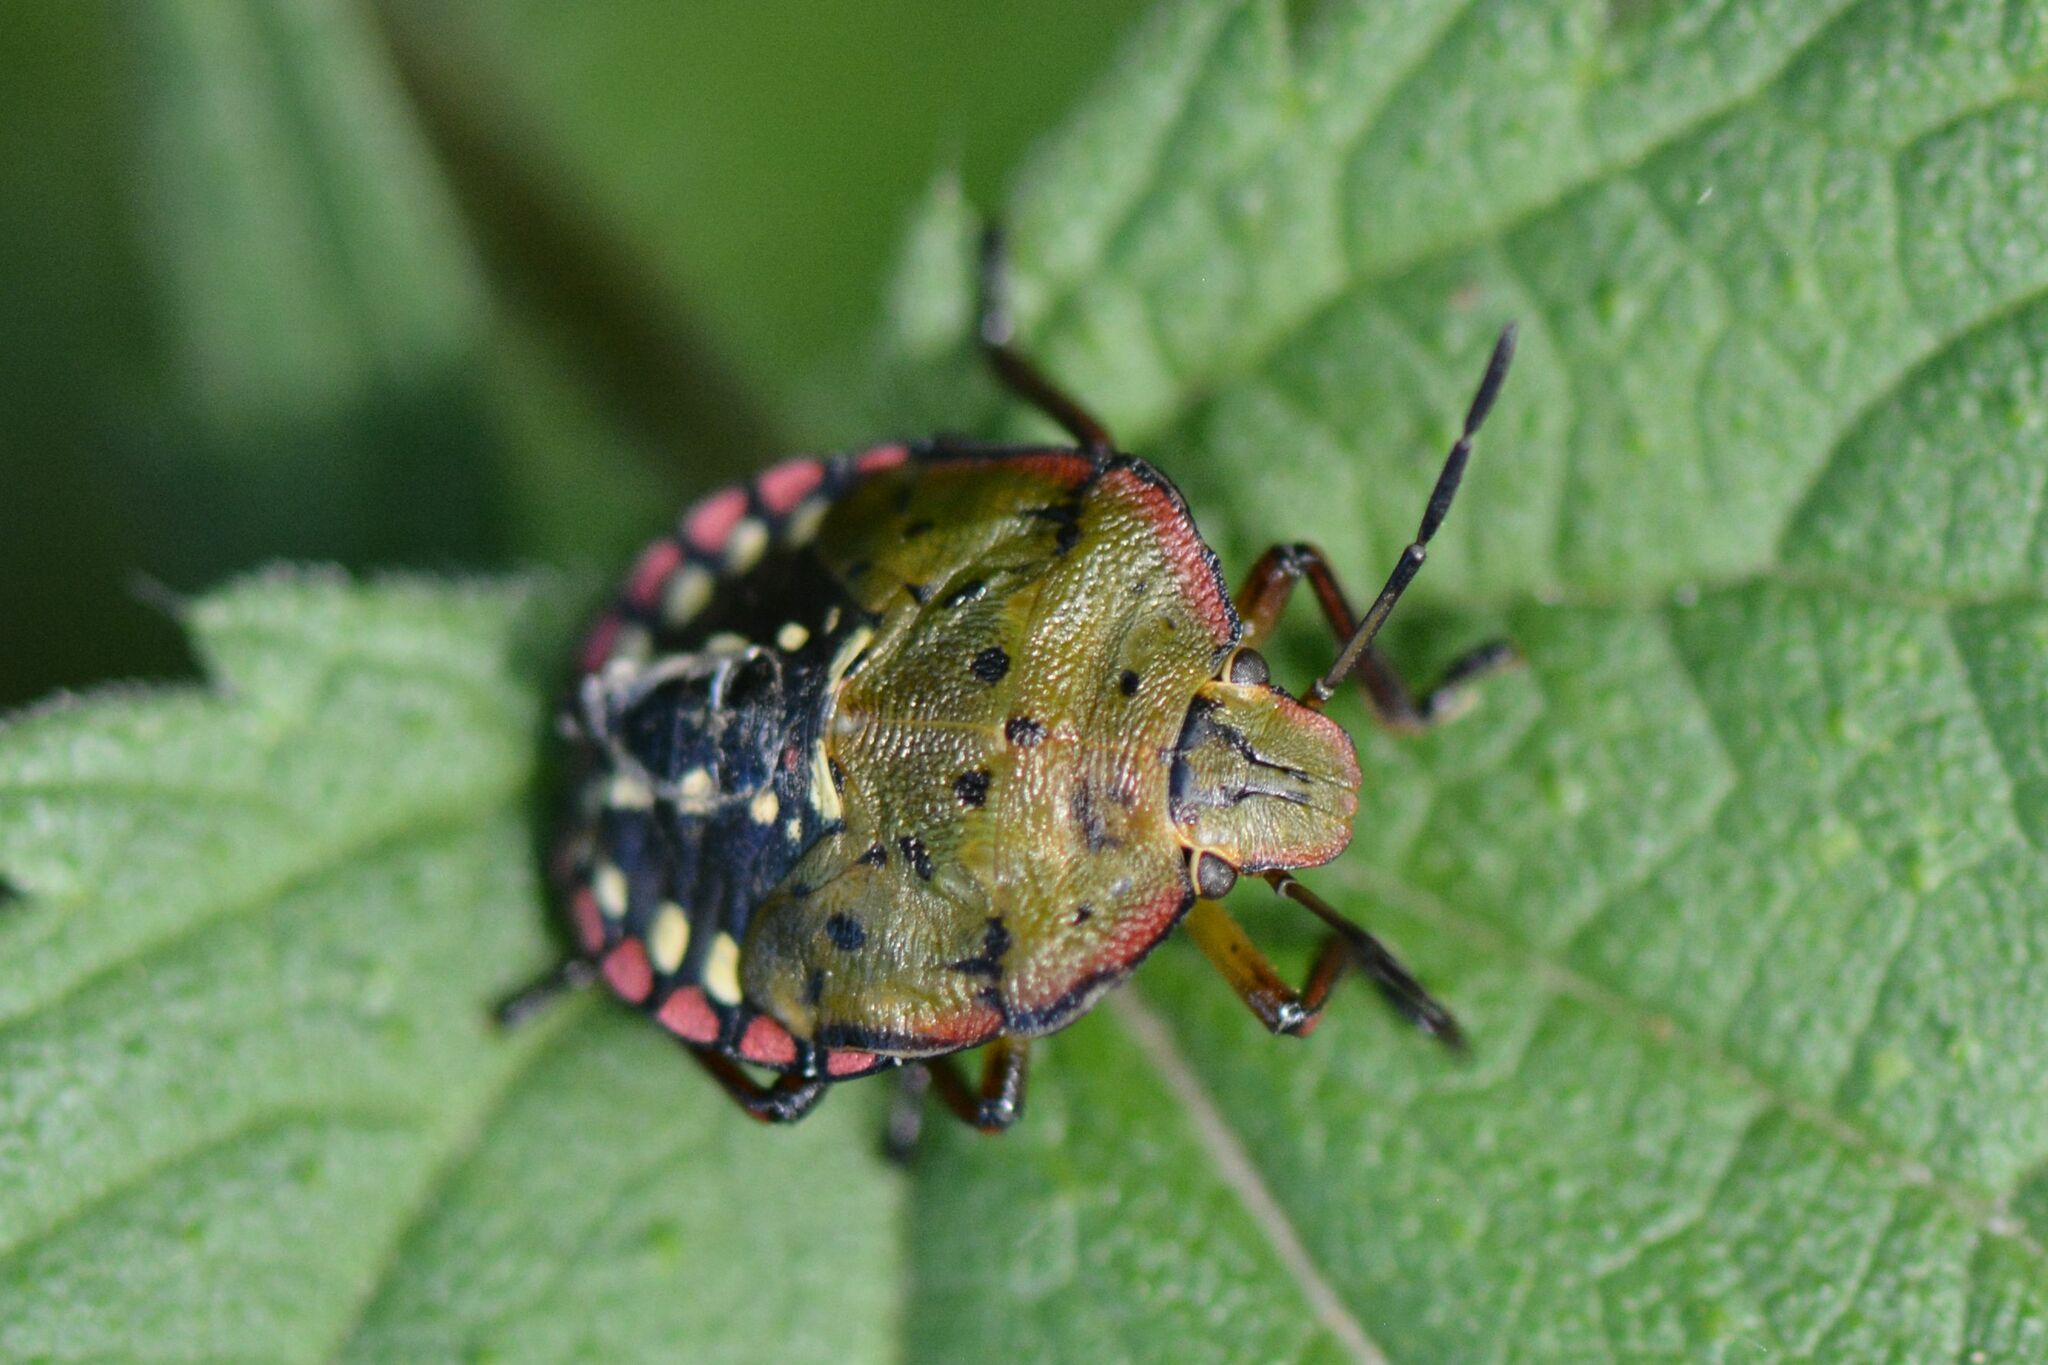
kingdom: Animalia
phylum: Arthropoda
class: Insecta
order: Hemiptera
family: Pentatomidae
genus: Nezara
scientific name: Nezara viridula
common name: Southern green stink bug
